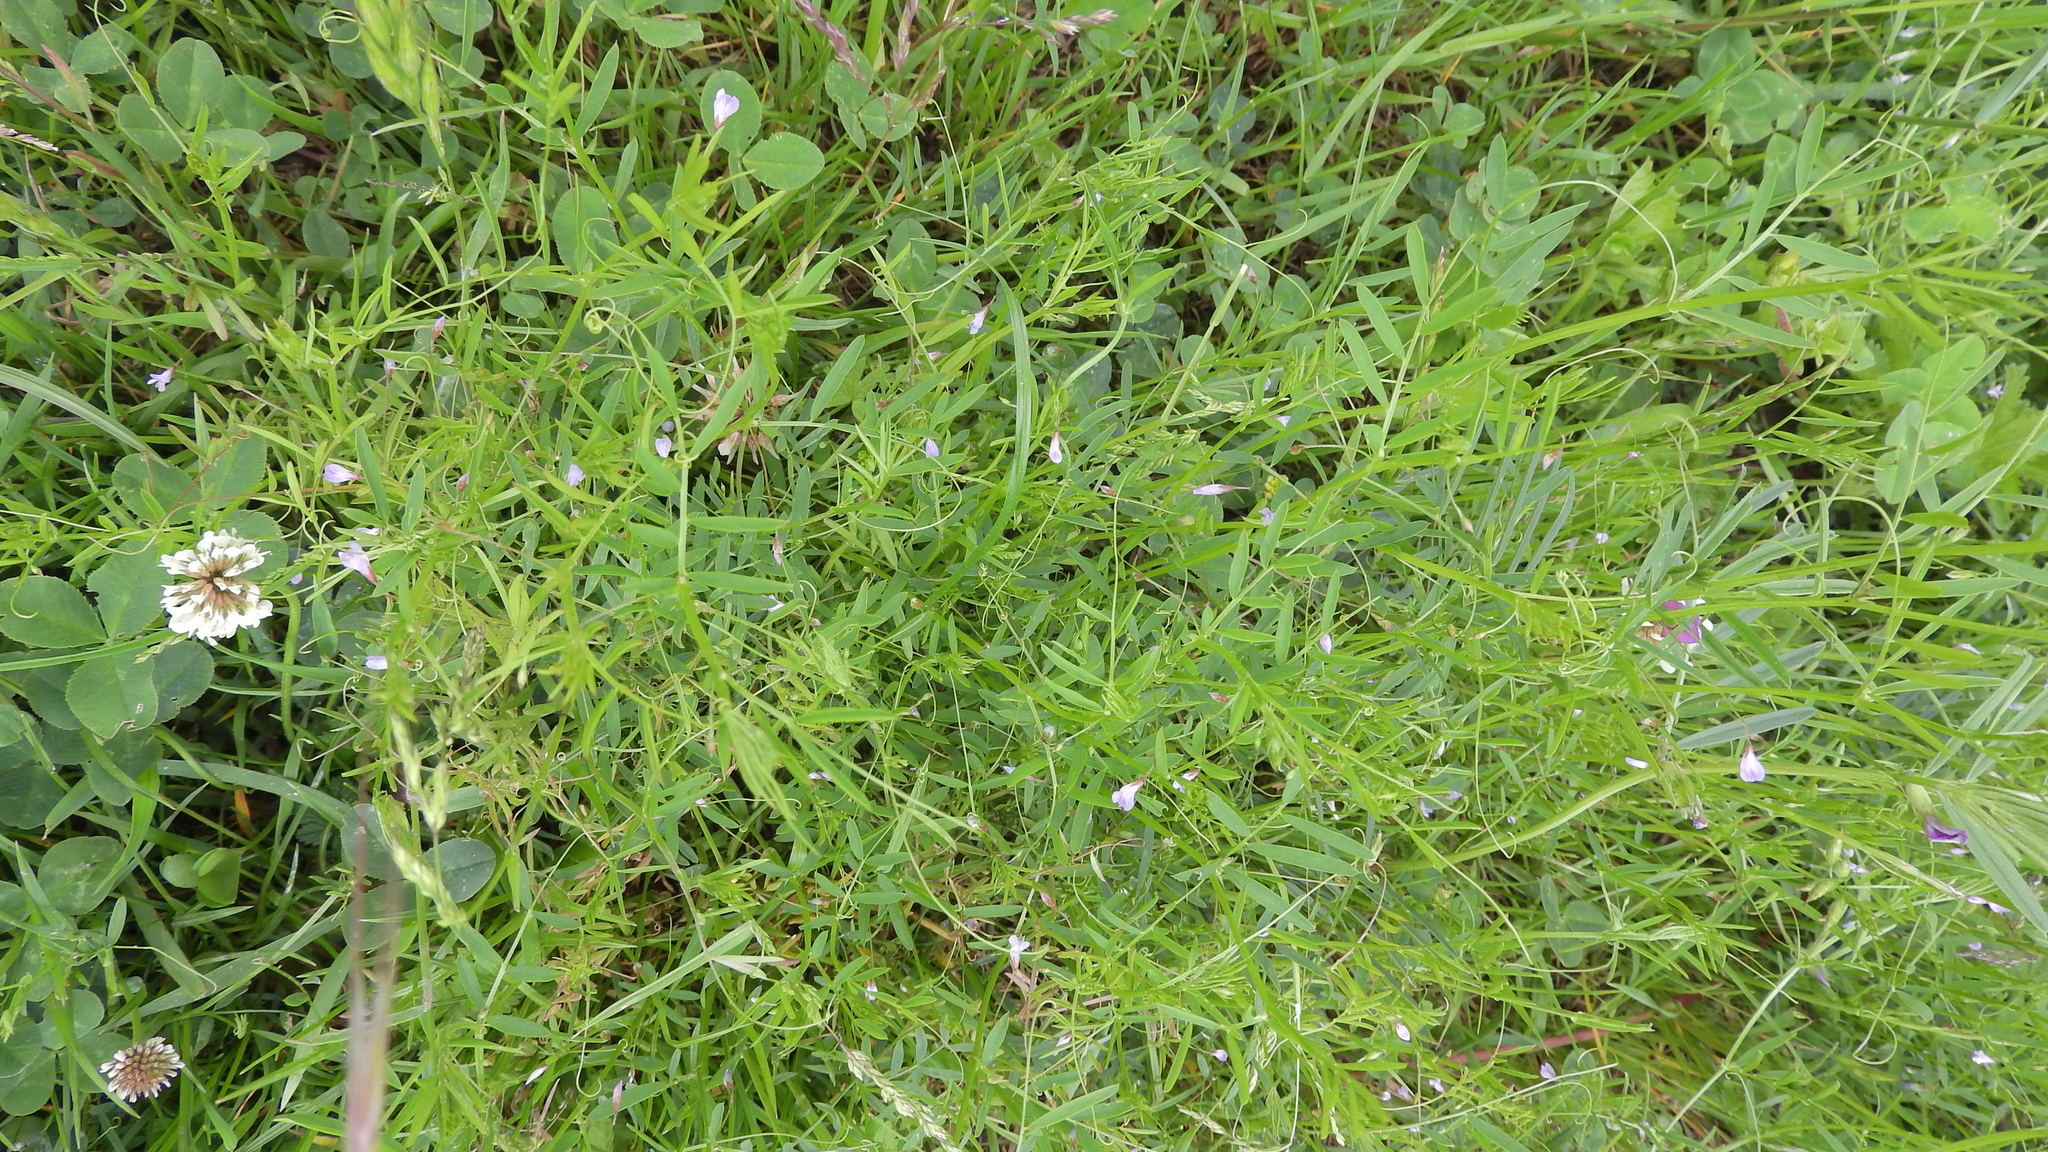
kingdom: Plantae
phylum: Tracheophyta
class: Magnoliopsida
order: Fabales
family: Fabaceae
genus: Vicia
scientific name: Vicia tetrasperma
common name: Smooth tare
